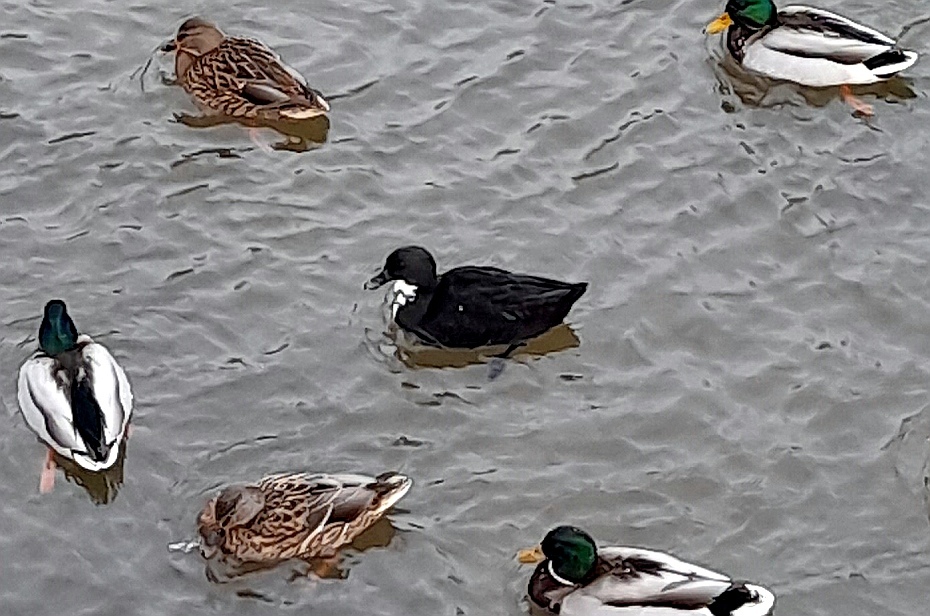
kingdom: Animalia
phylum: Chordata
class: Aves
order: Anseriformes
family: Anatidae
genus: Anas
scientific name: Anas platyrhynchos
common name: Mallard
